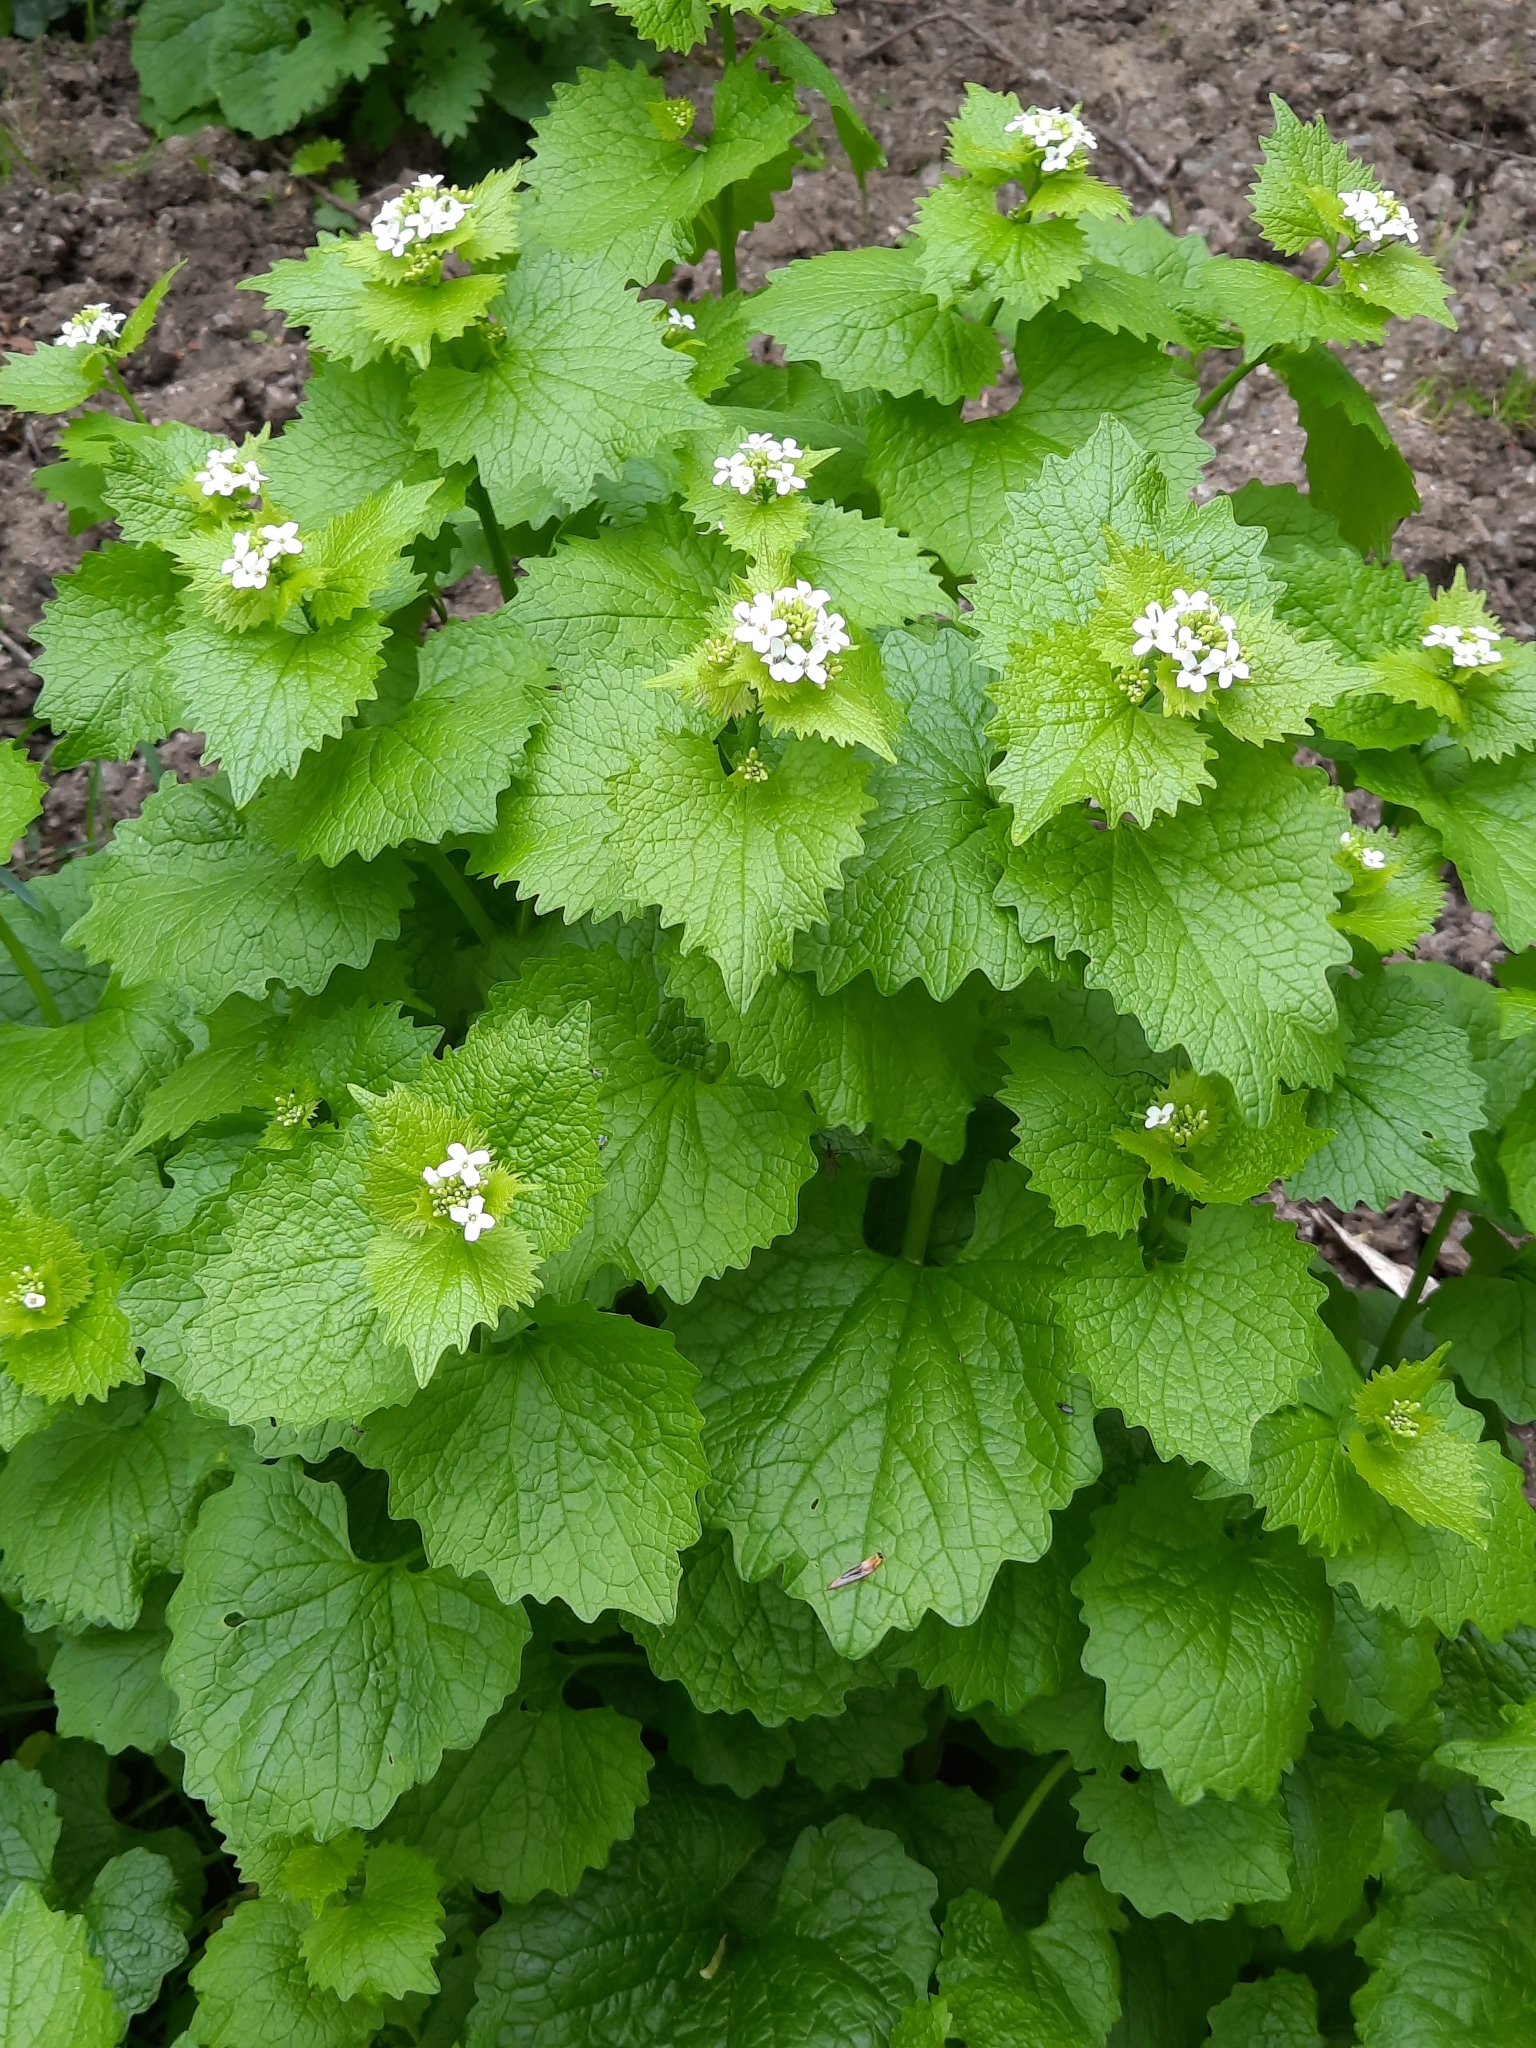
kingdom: Plantae
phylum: Tracheophyta
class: Magnoliopsida
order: Brassicales
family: Brassicaceae
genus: Alliaria
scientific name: Alliaria petiolata
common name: Garlic mustard
